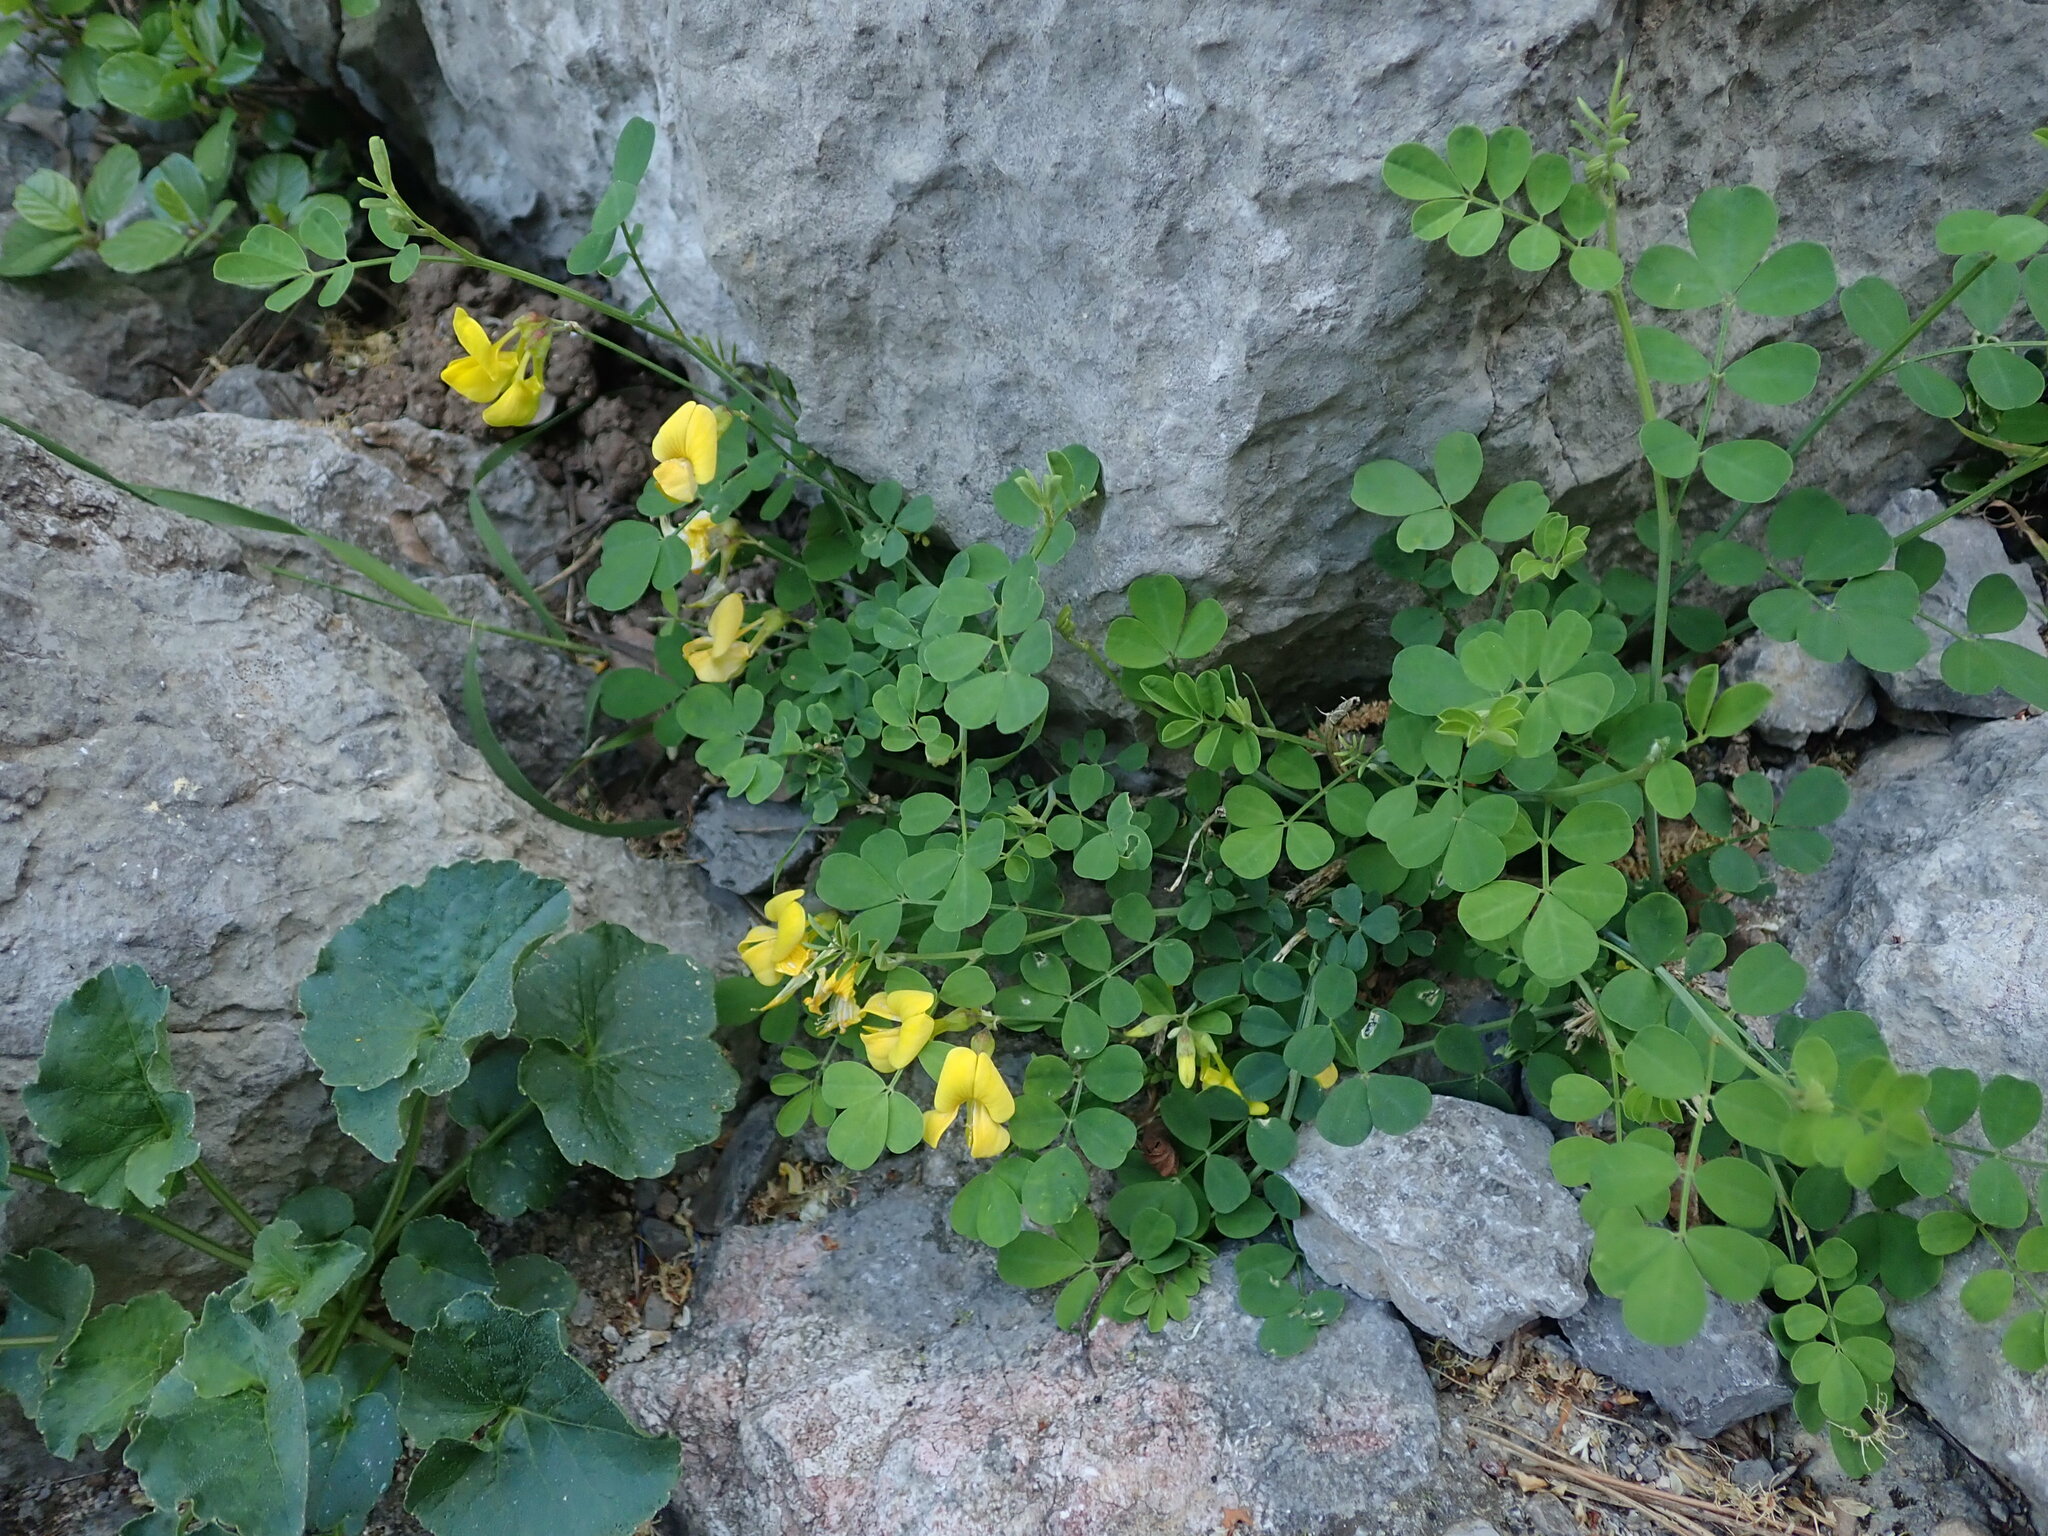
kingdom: Plantae
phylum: Tracheophyta
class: Magnoliopsida
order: Fabales
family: Fabaceae
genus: Hippocrepis
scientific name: Hippocrepis emerus
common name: Scorpion senna
